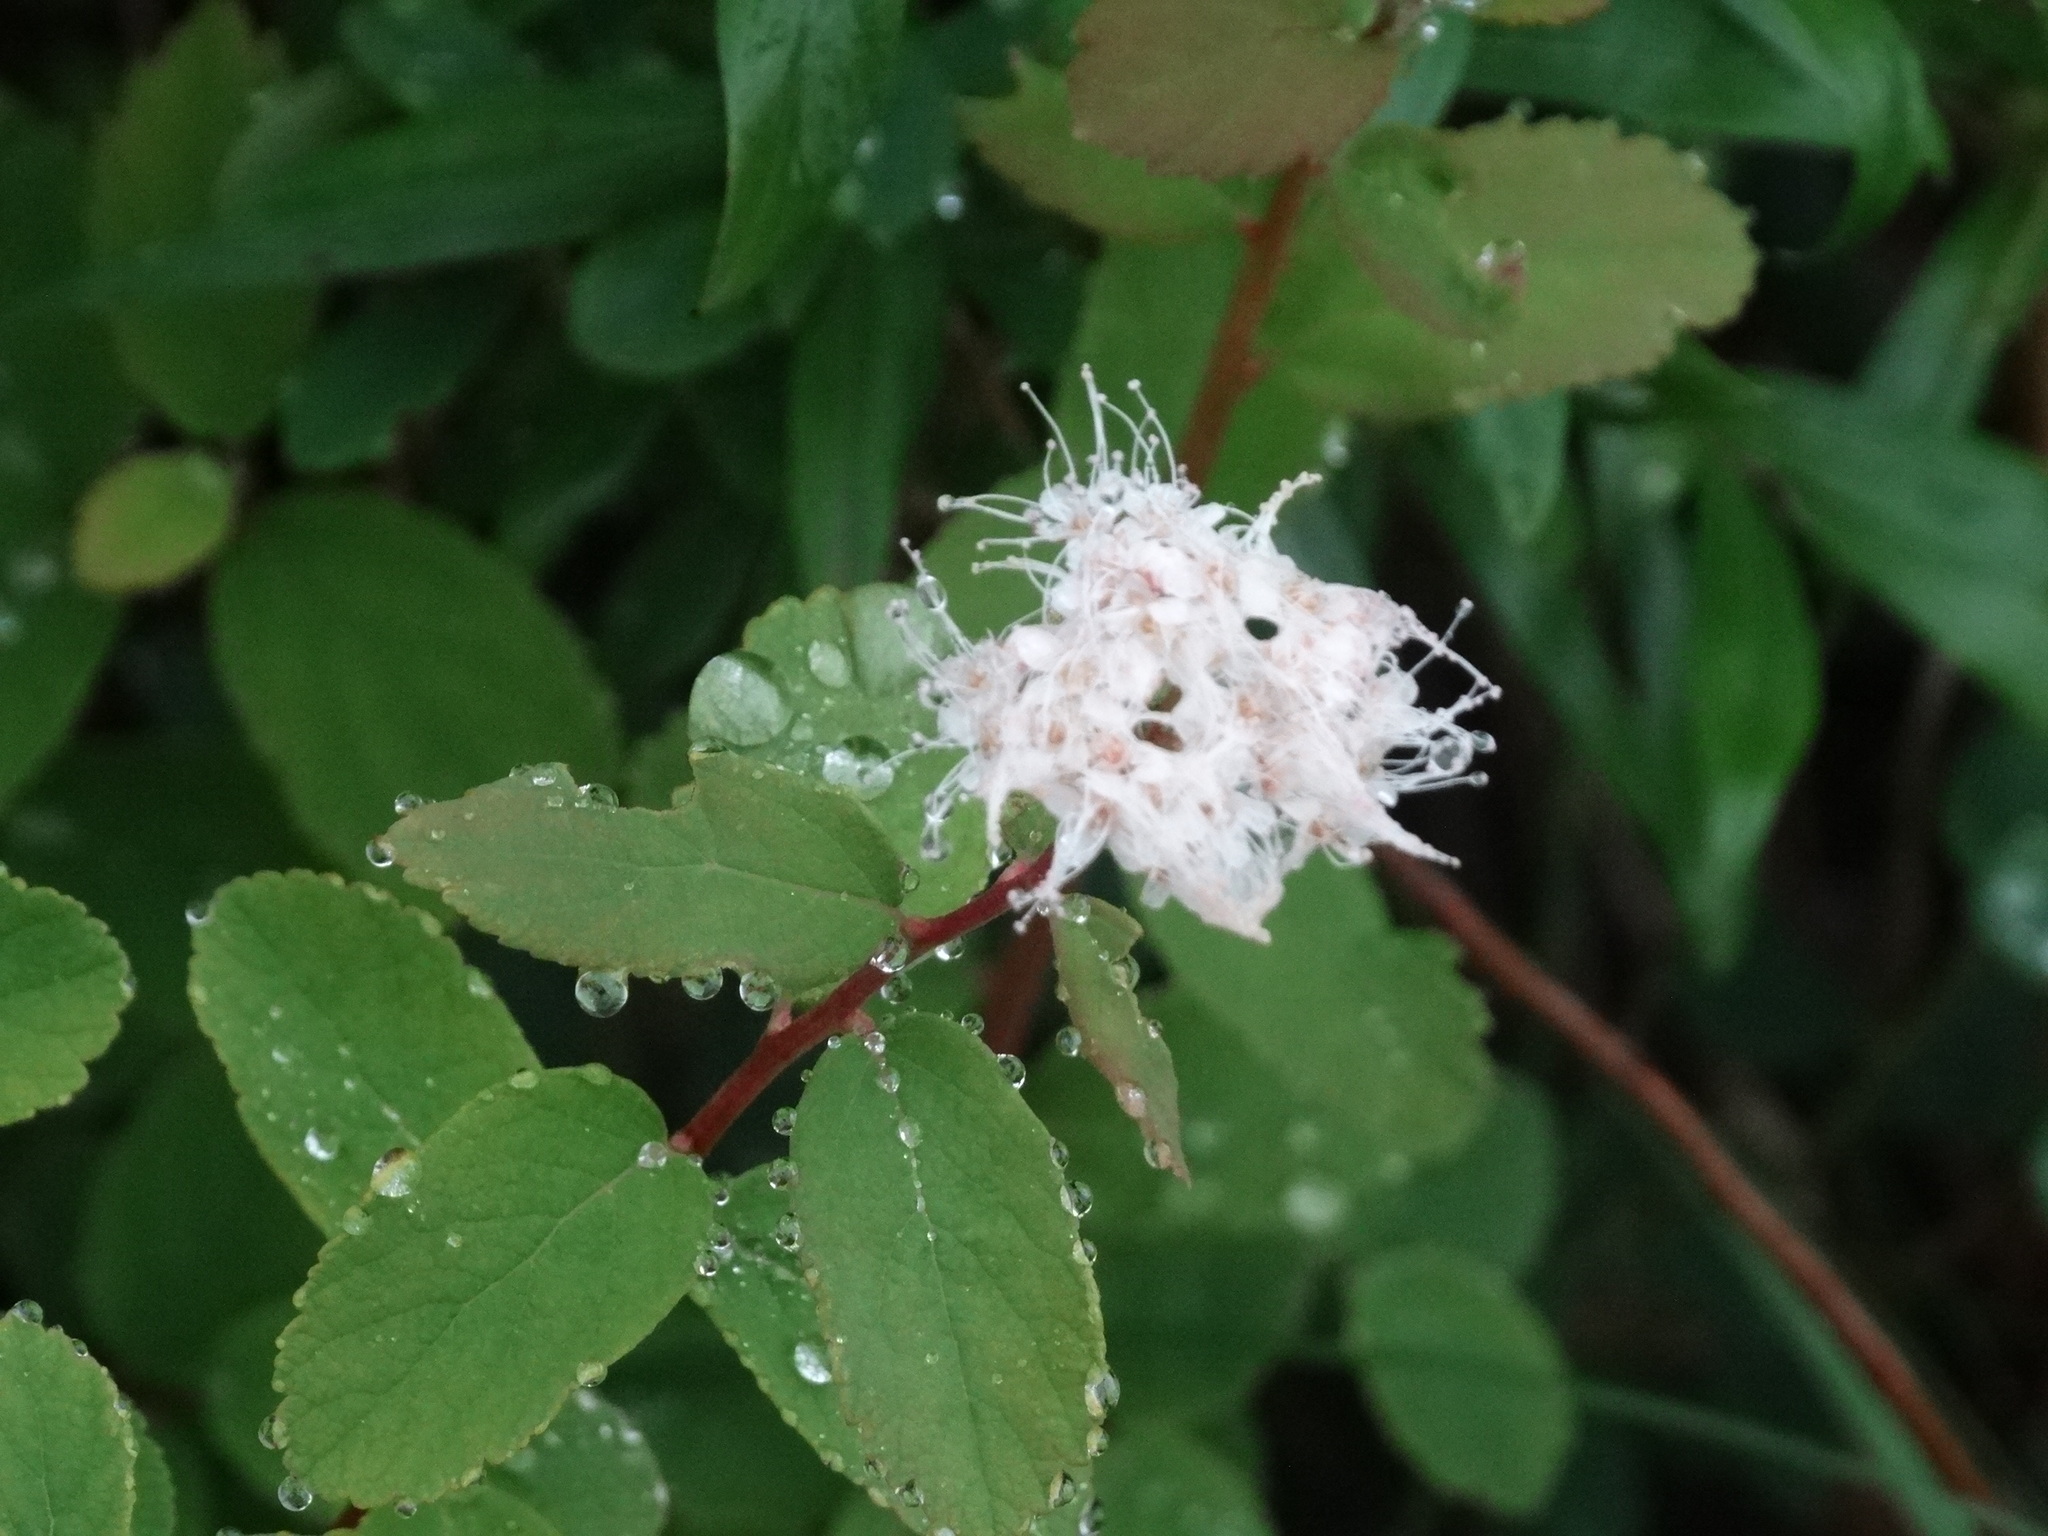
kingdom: Plantae
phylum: Tracheophyta
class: Magnoliopsida
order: Rosales
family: Rosaceae
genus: Spiraea
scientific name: Spiraea stevenii
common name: Steven's meadowsweet
